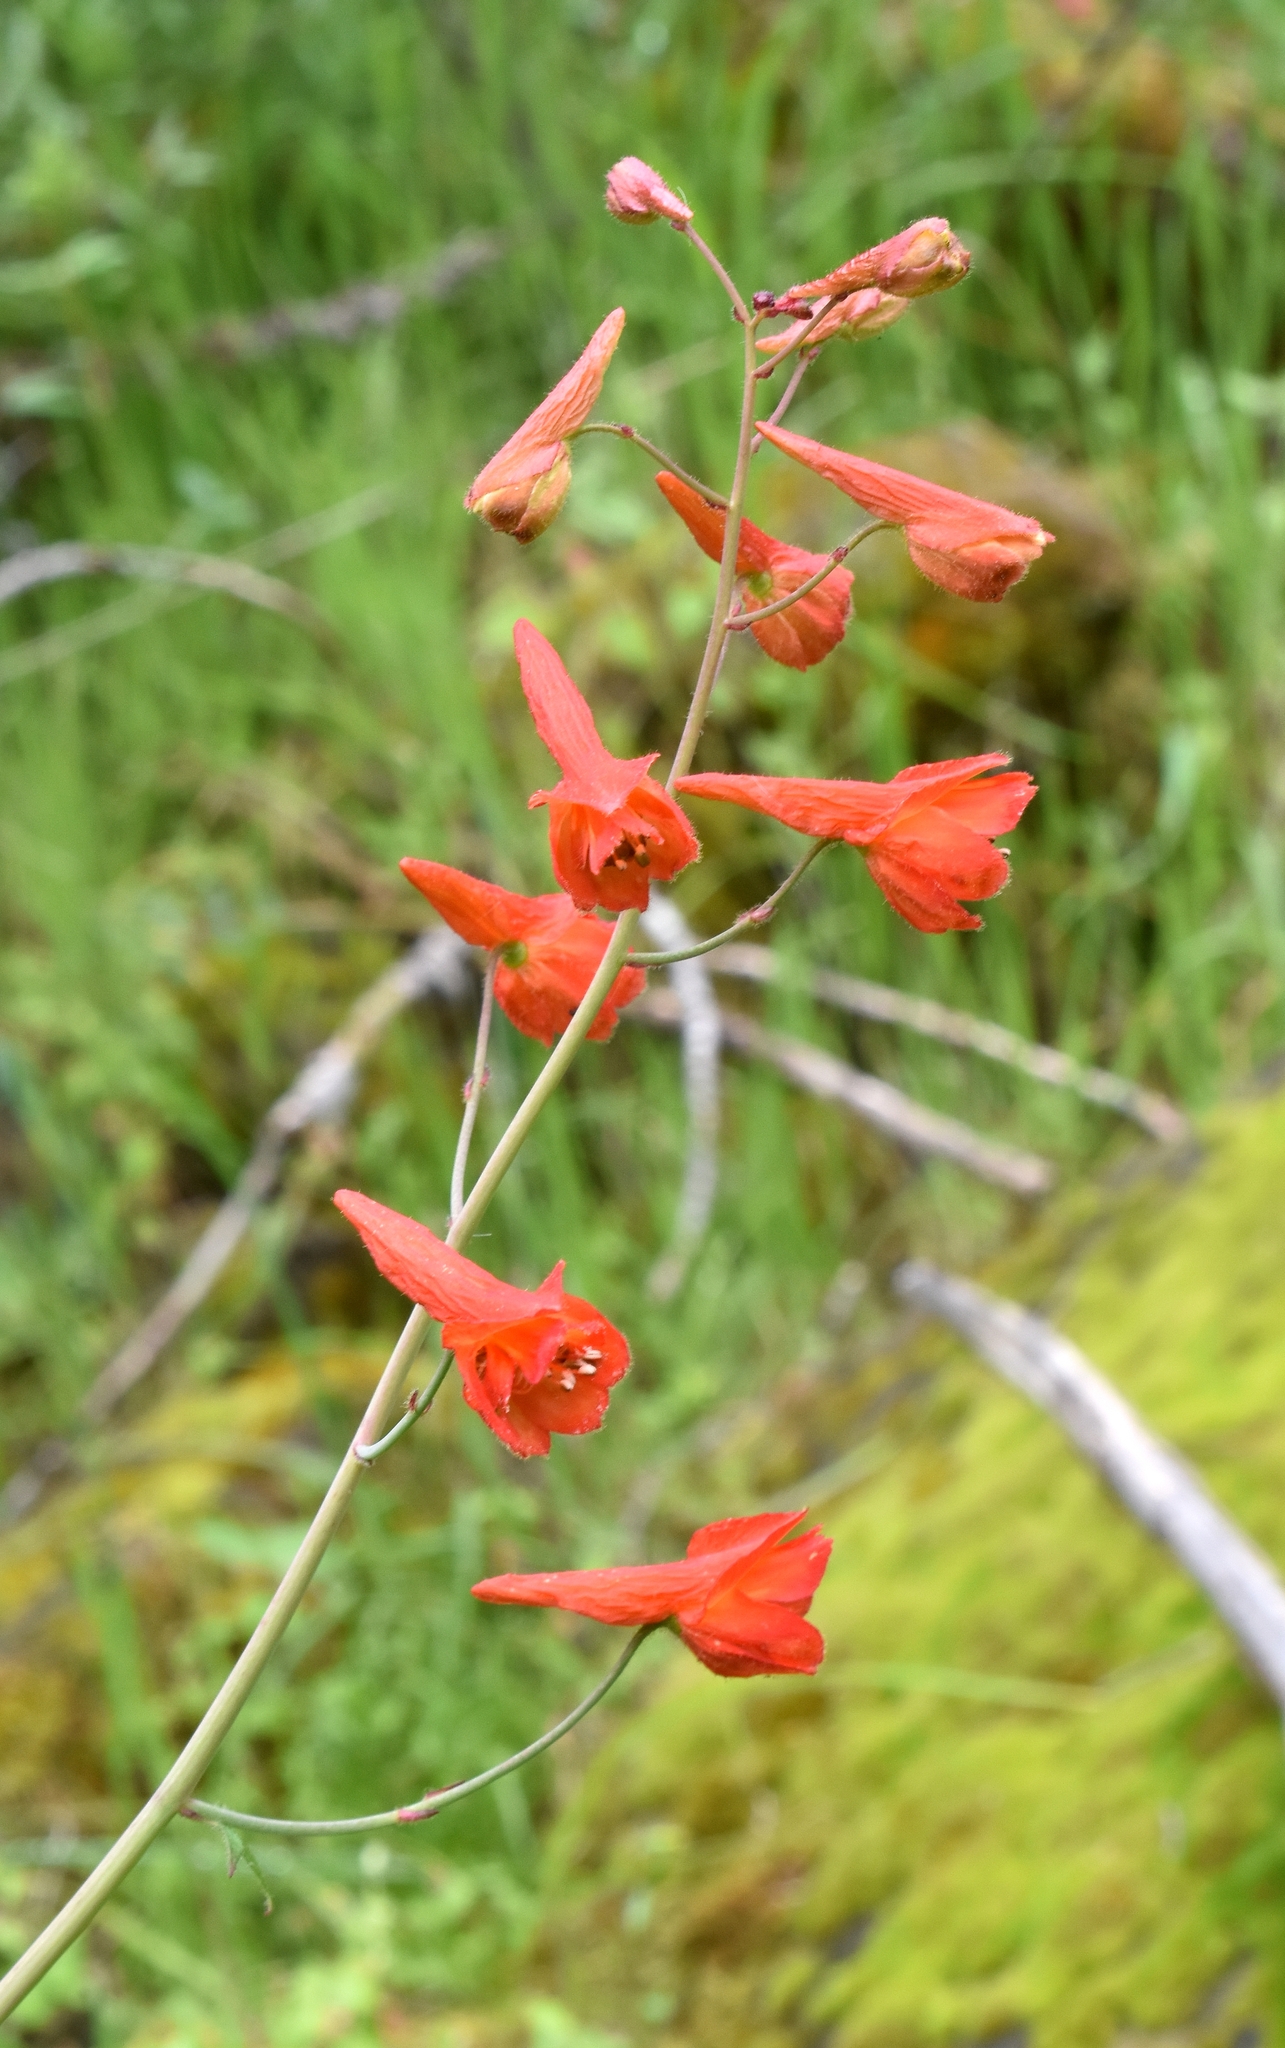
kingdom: Plantae
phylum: Tracheophyta
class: Magnoliopsida
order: Ranunculales
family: Ranunculaceae
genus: Delphinium
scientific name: Delphinium nudicaule
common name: Red larkspur
